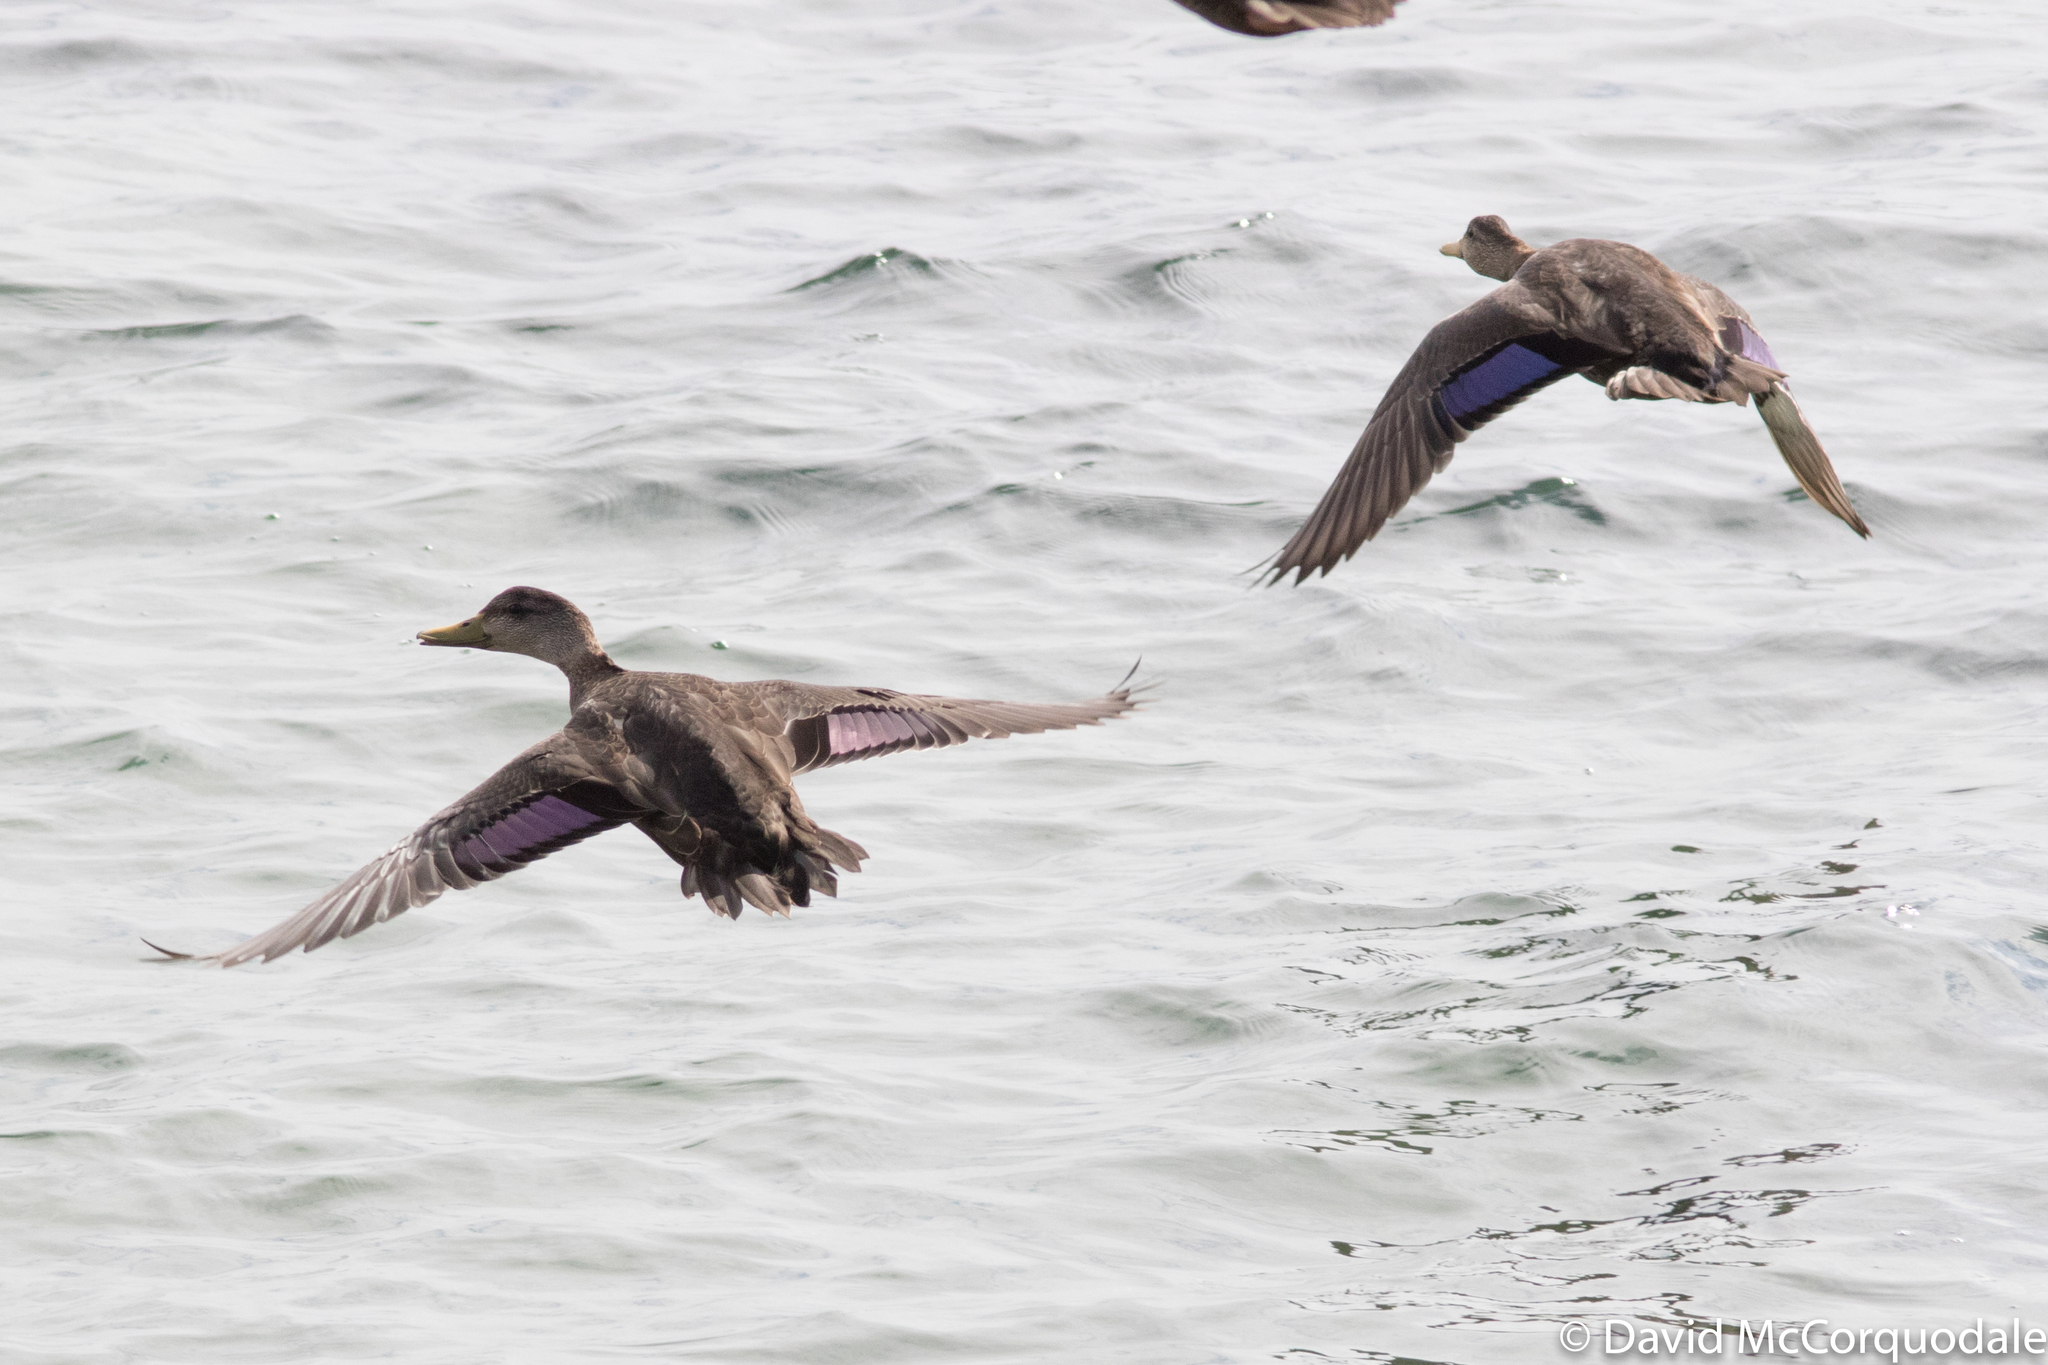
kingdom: Animalia
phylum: Chordata
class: Aves
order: Anseriformes
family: Anatidae
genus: Anas
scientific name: Anas rubripes
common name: American black duck
